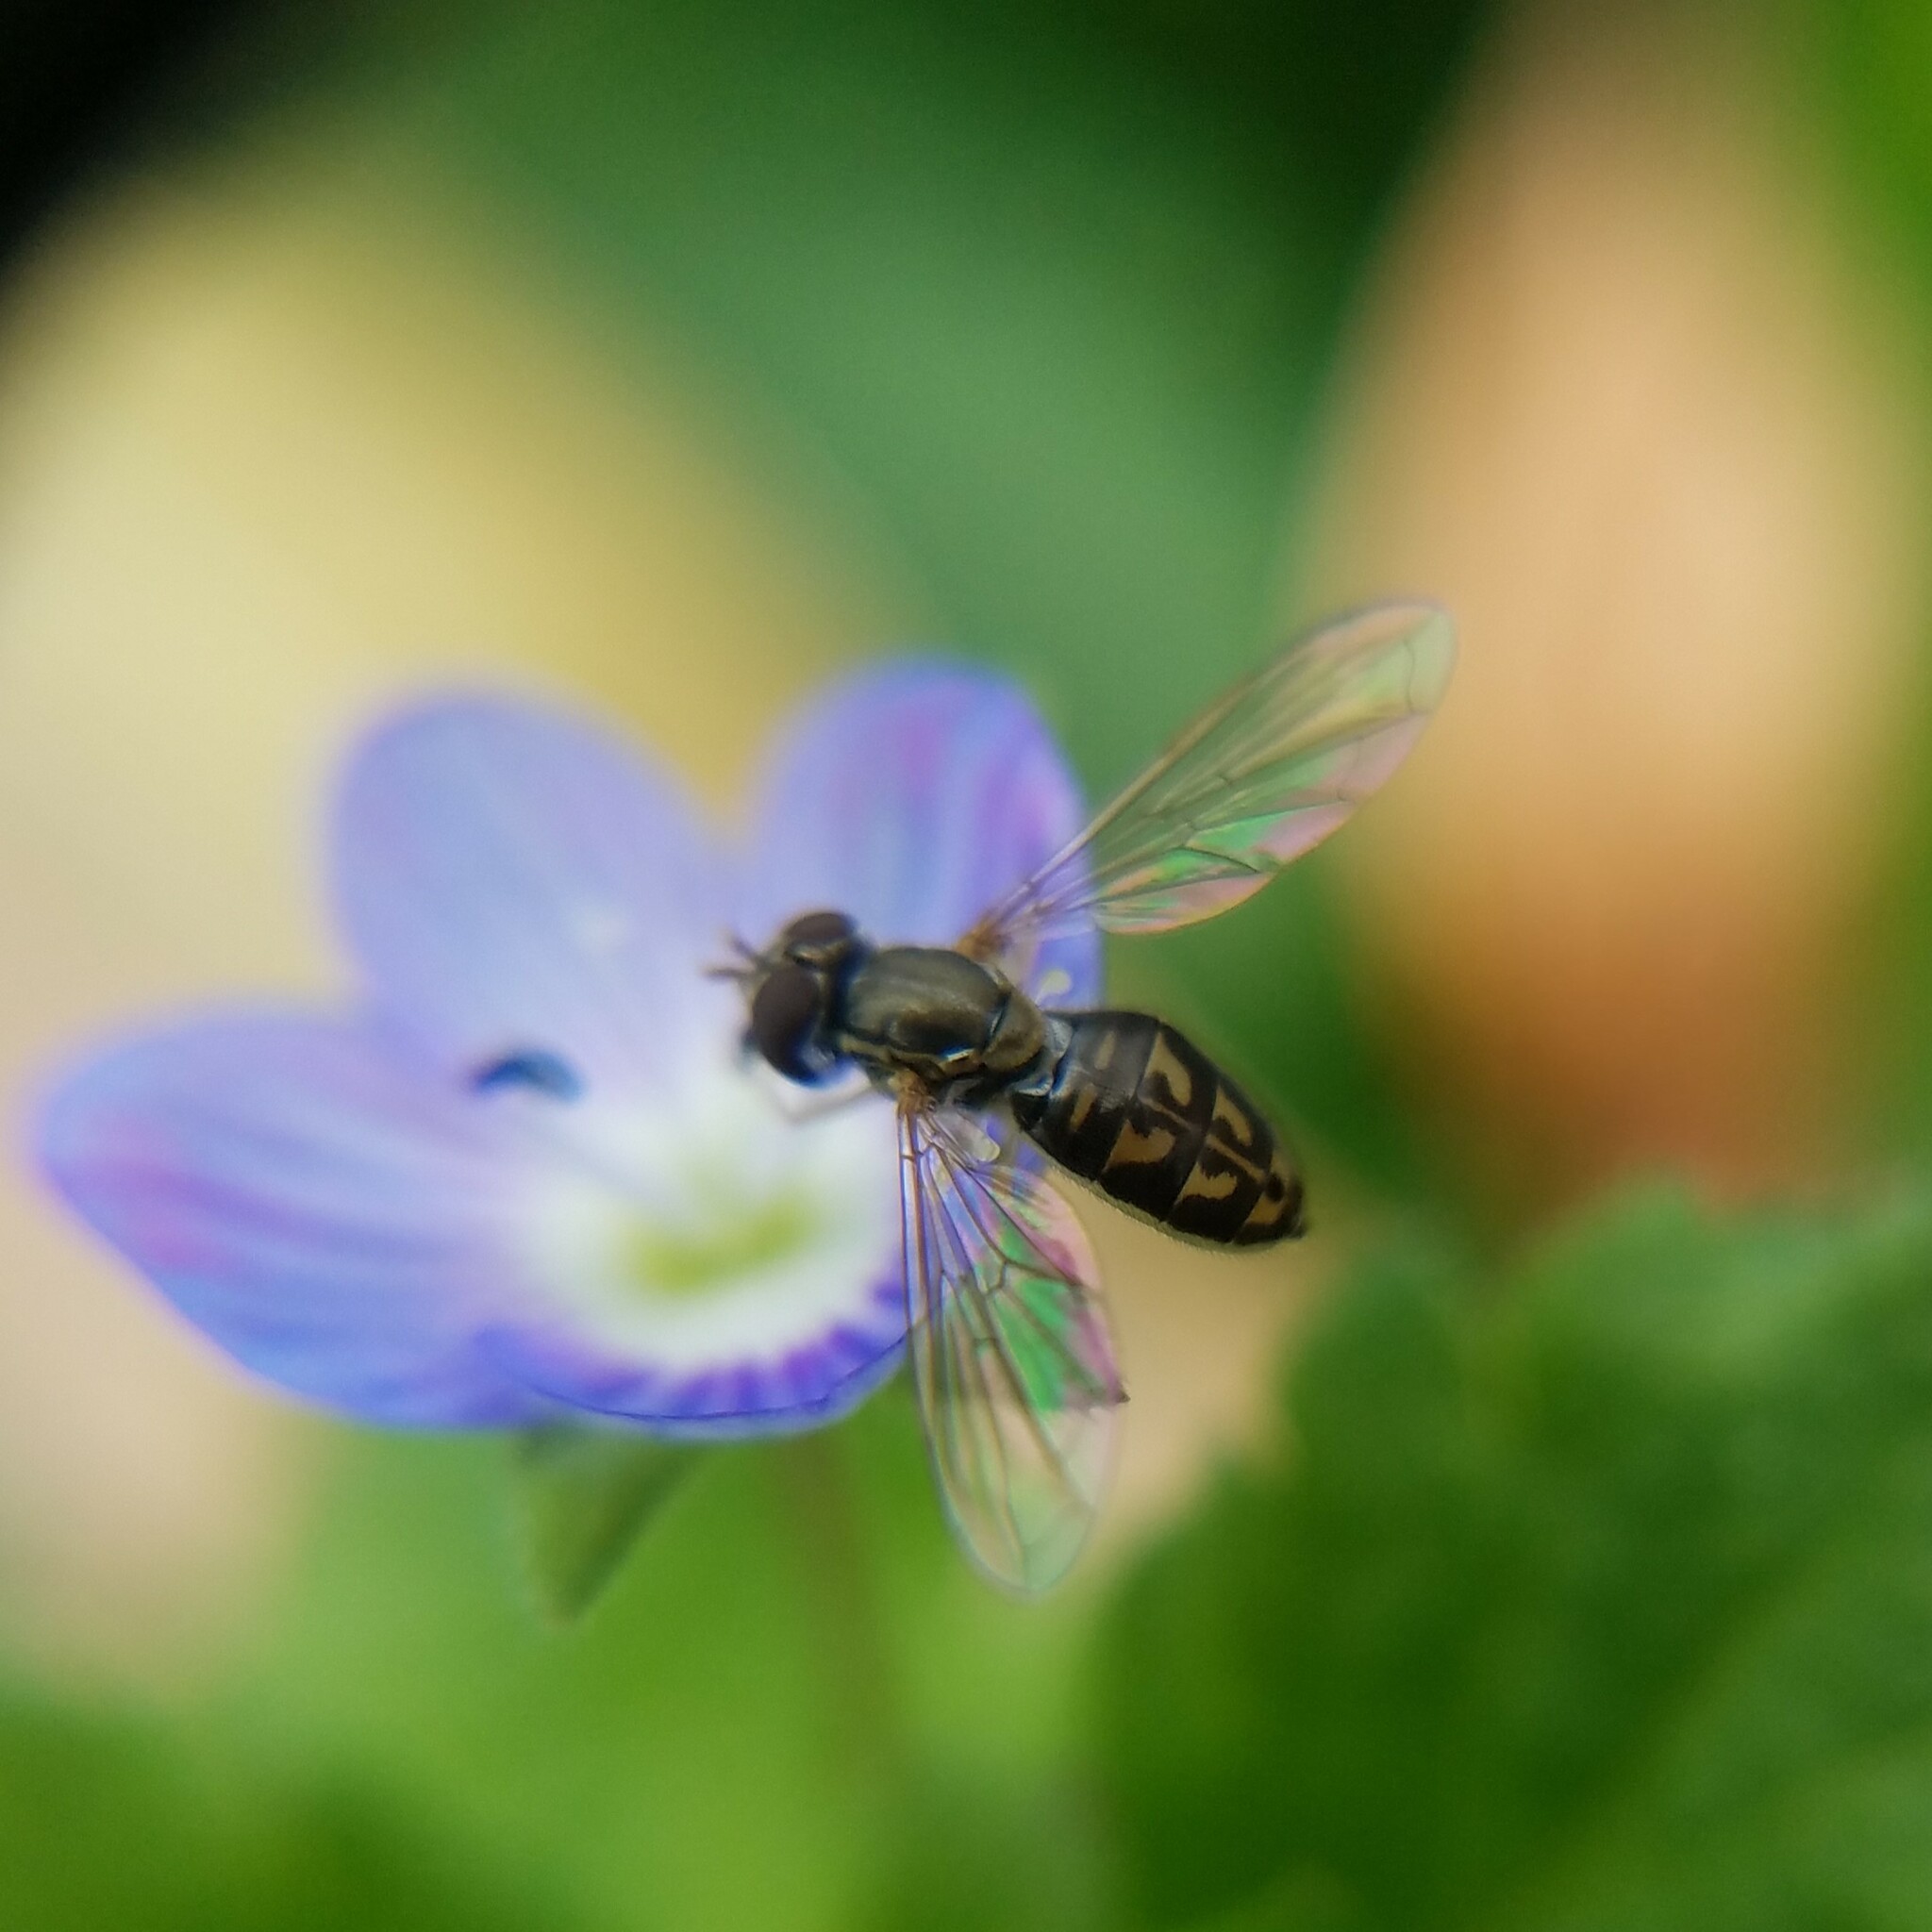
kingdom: Animalia
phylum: Arthropoda
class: Insecta
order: Diptera
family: Syrphidae
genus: Toxomerus
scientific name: Toxomerus marginatus
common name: Syrphid fly
